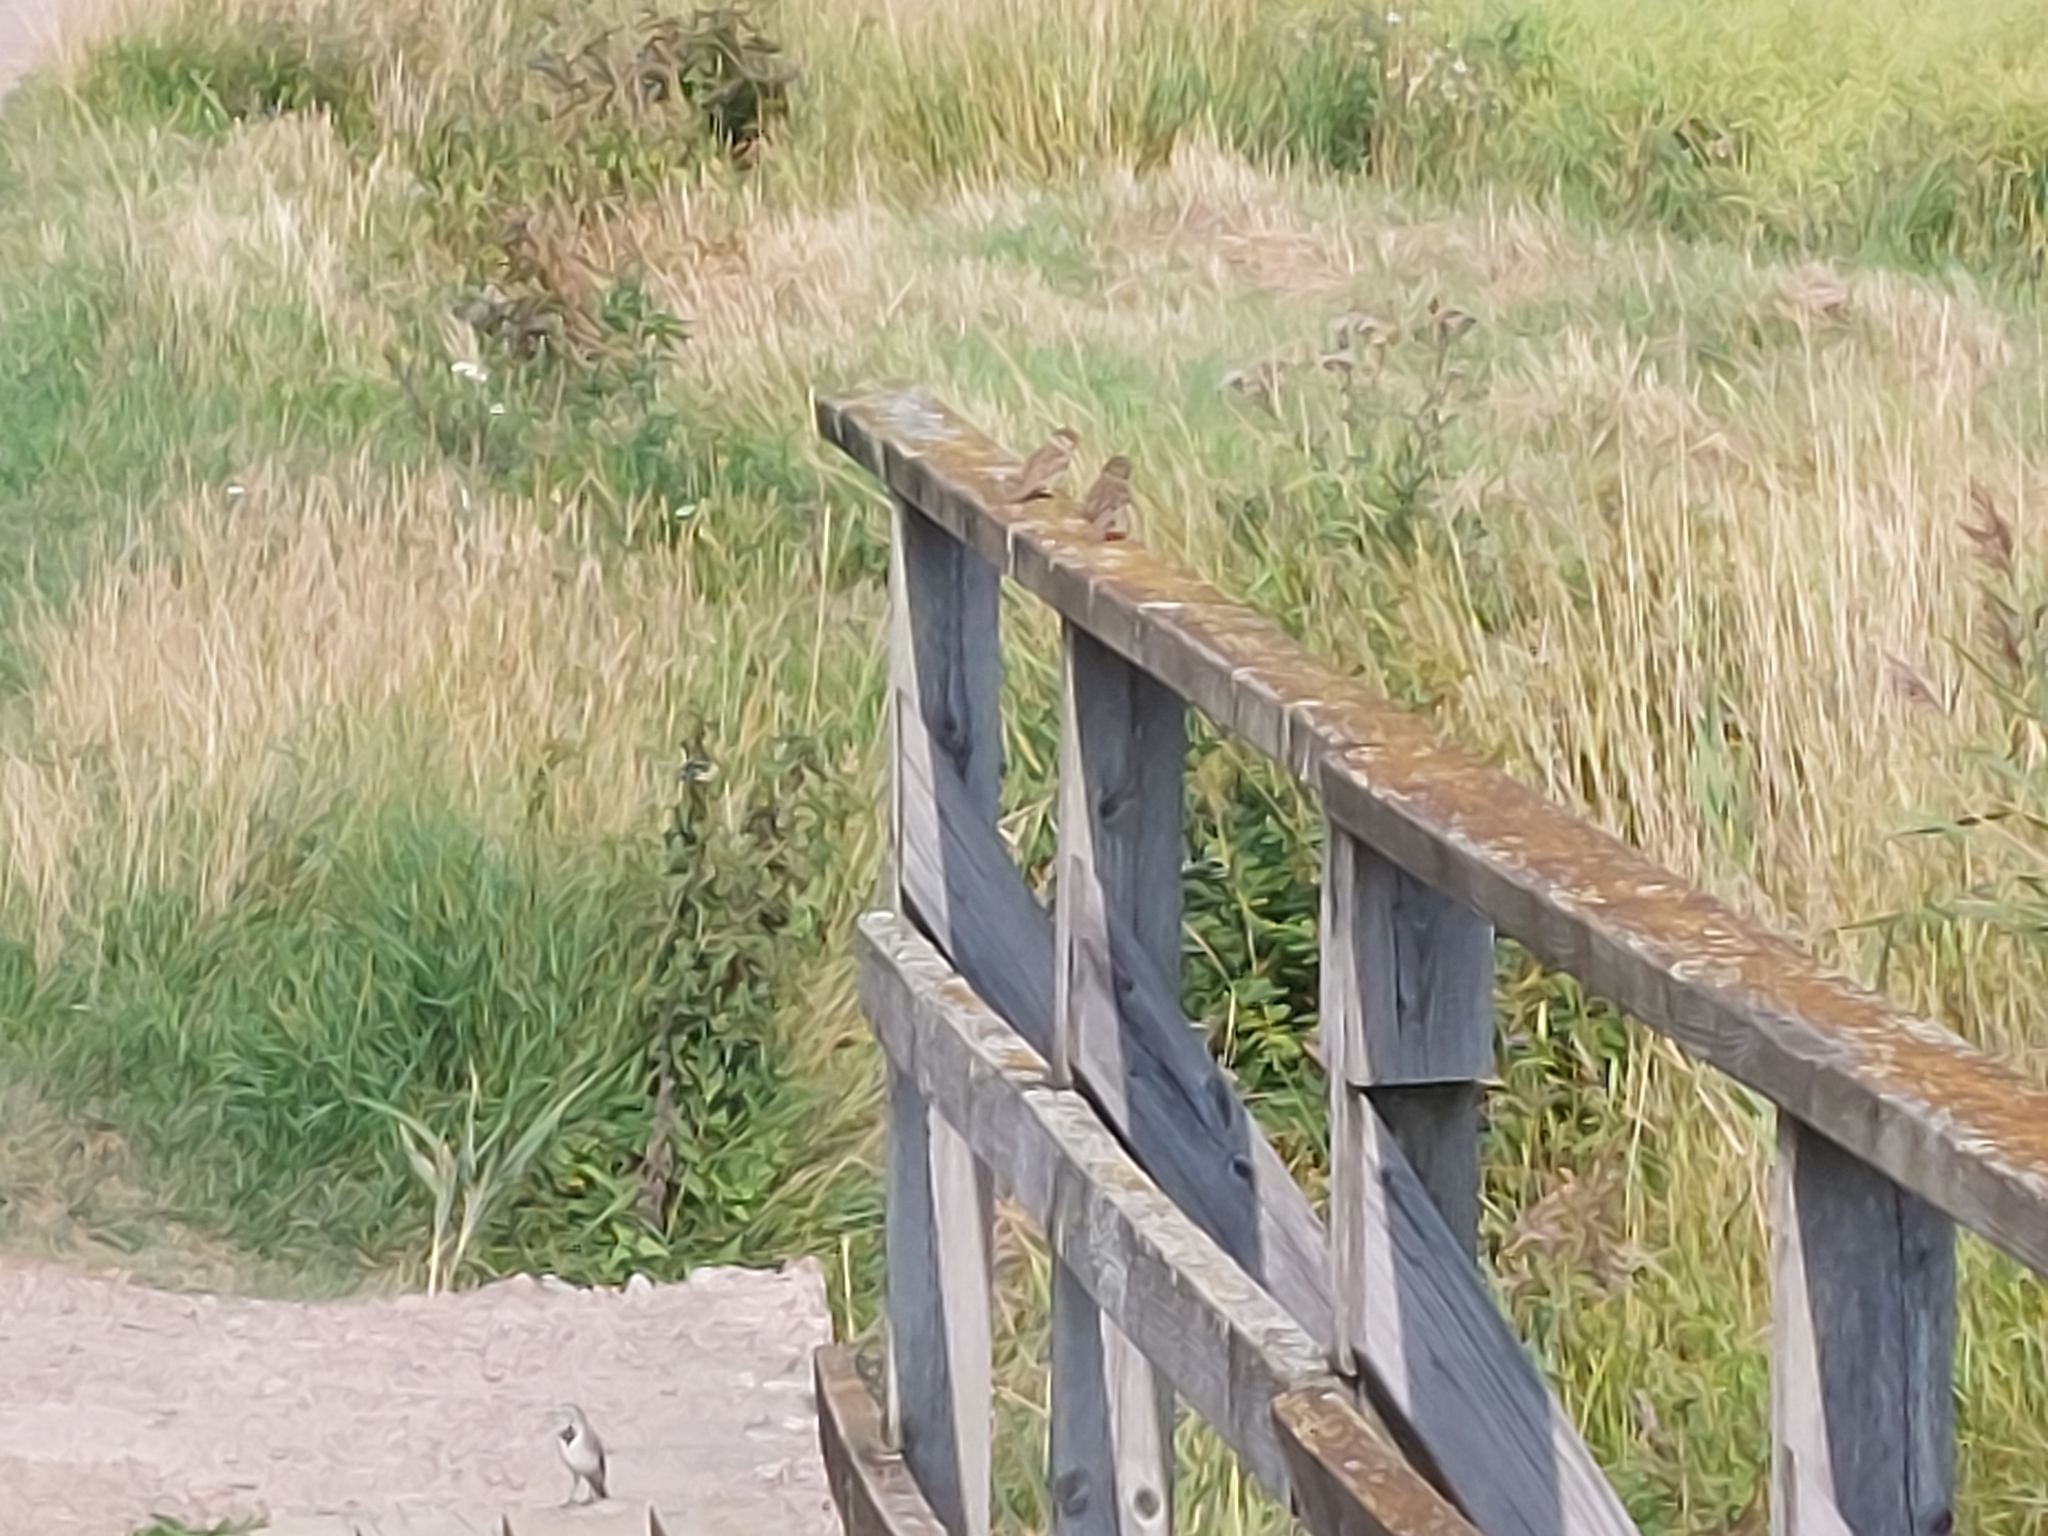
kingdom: Animalia
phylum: Chordata
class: Aves
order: Passeriformes
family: Passeridae
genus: Passer
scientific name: Passer domesticus
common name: House sparrow
